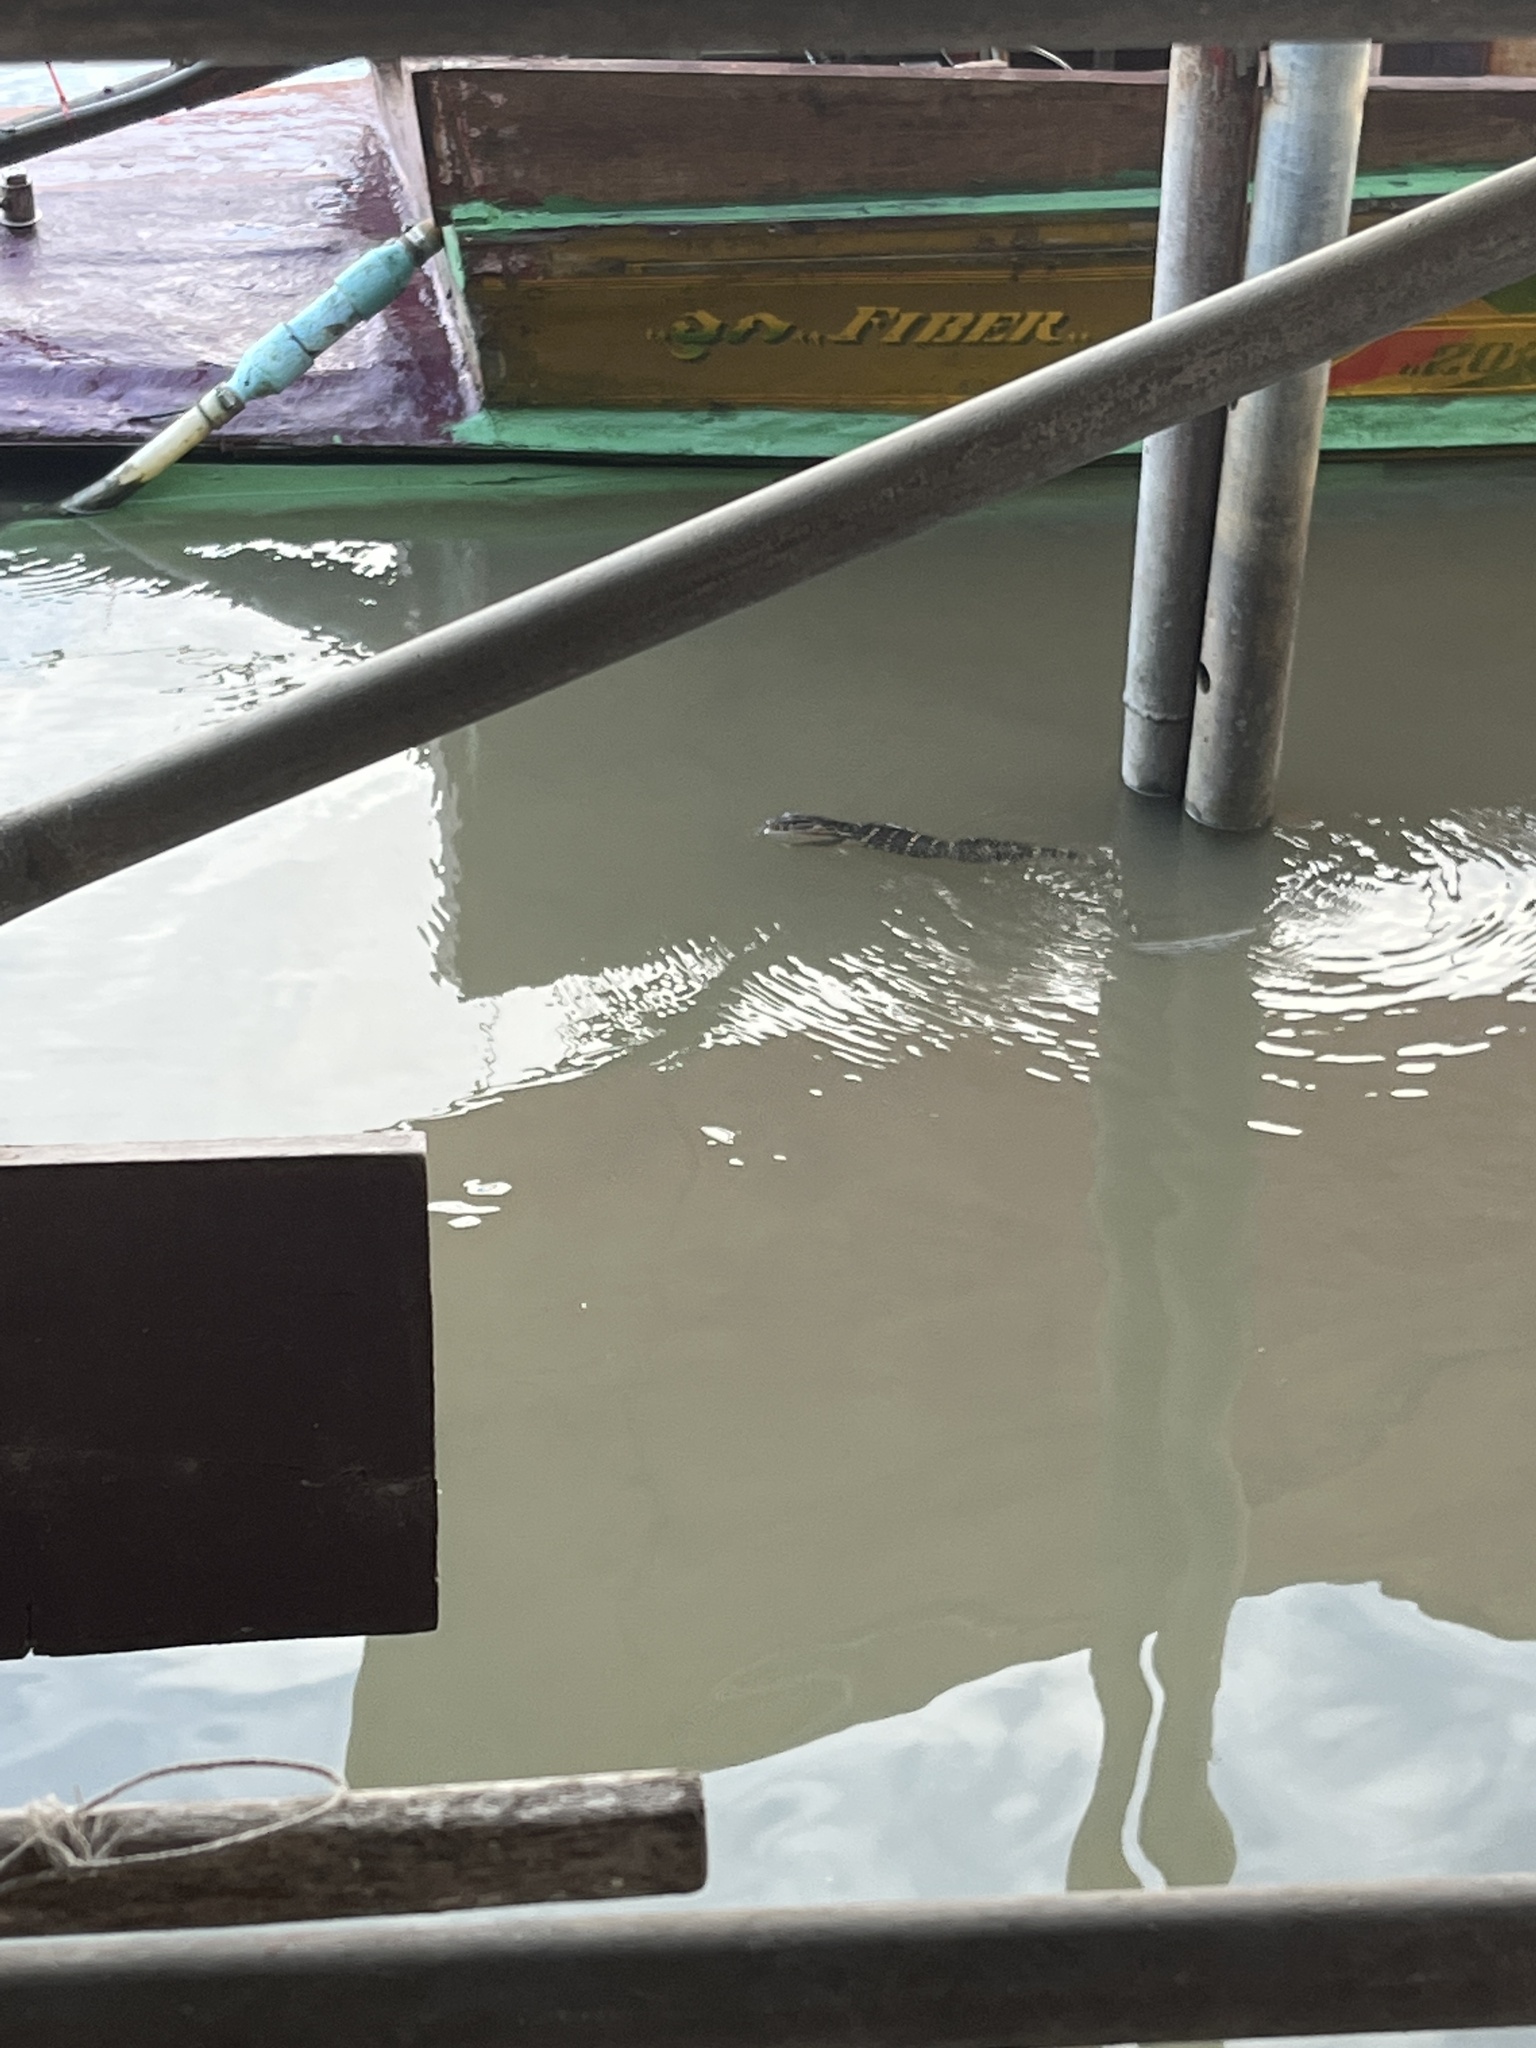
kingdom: Animalia
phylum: Chordata
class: Squamata
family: Varanidae
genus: Varanus
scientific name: Varanus salvator
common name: Common water monitor
